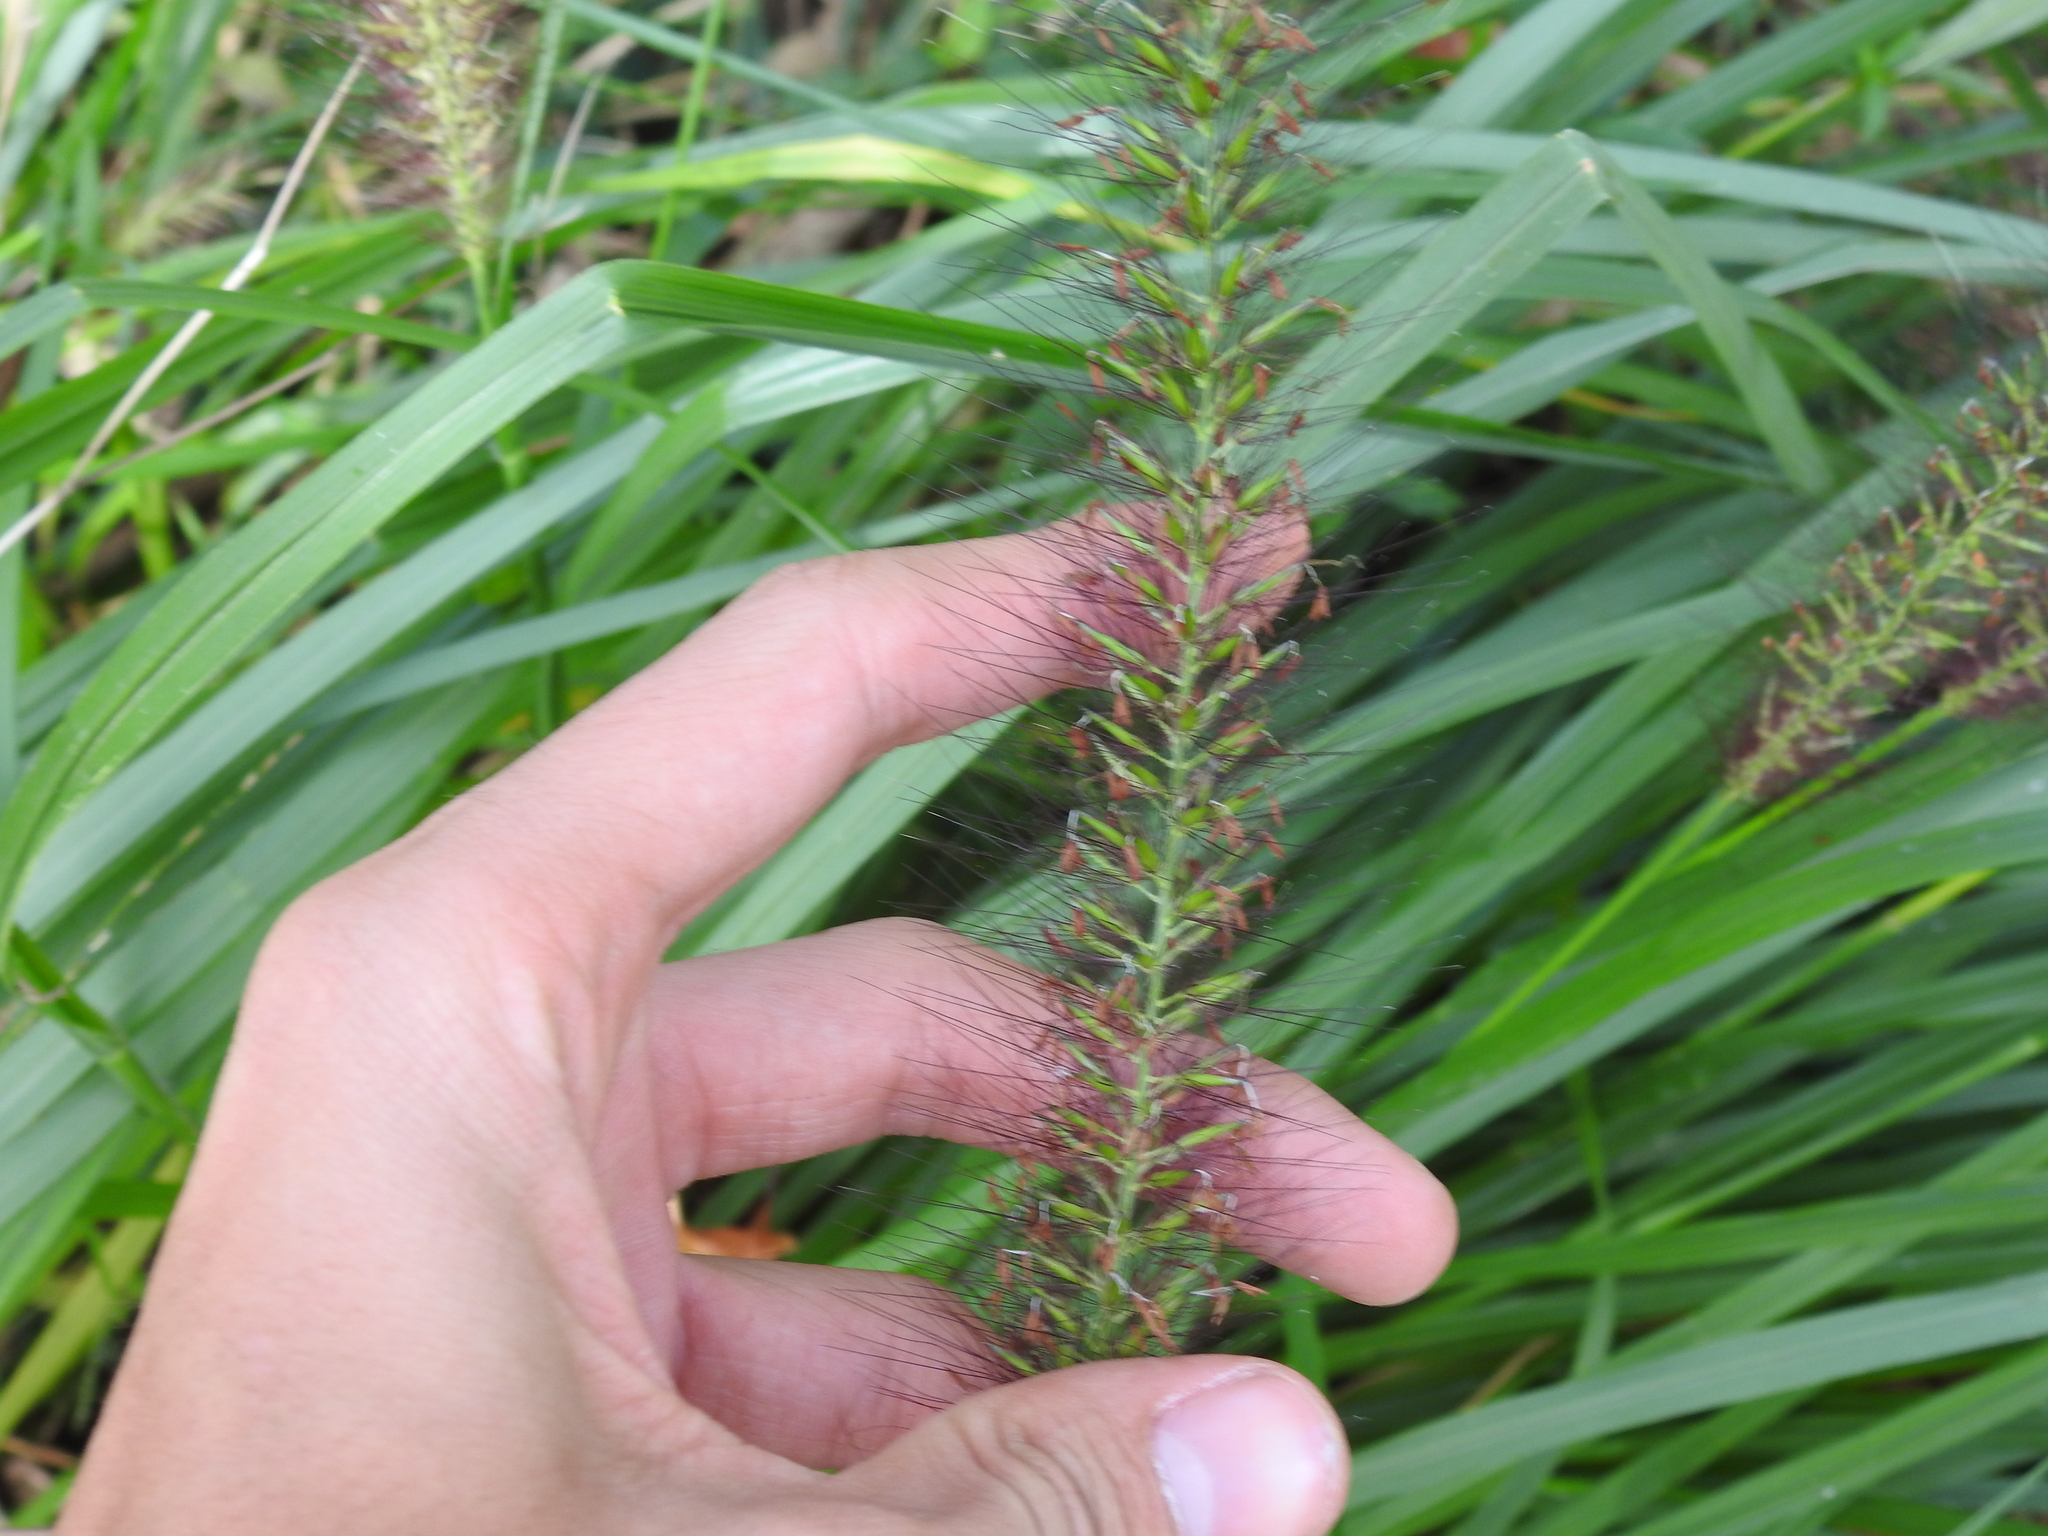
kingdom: Plantae
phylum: Tracheophyta
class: Liliopsida
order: Poales
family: Poaceae
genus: Cenchrus
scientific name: Cenchrus alopecuroides
